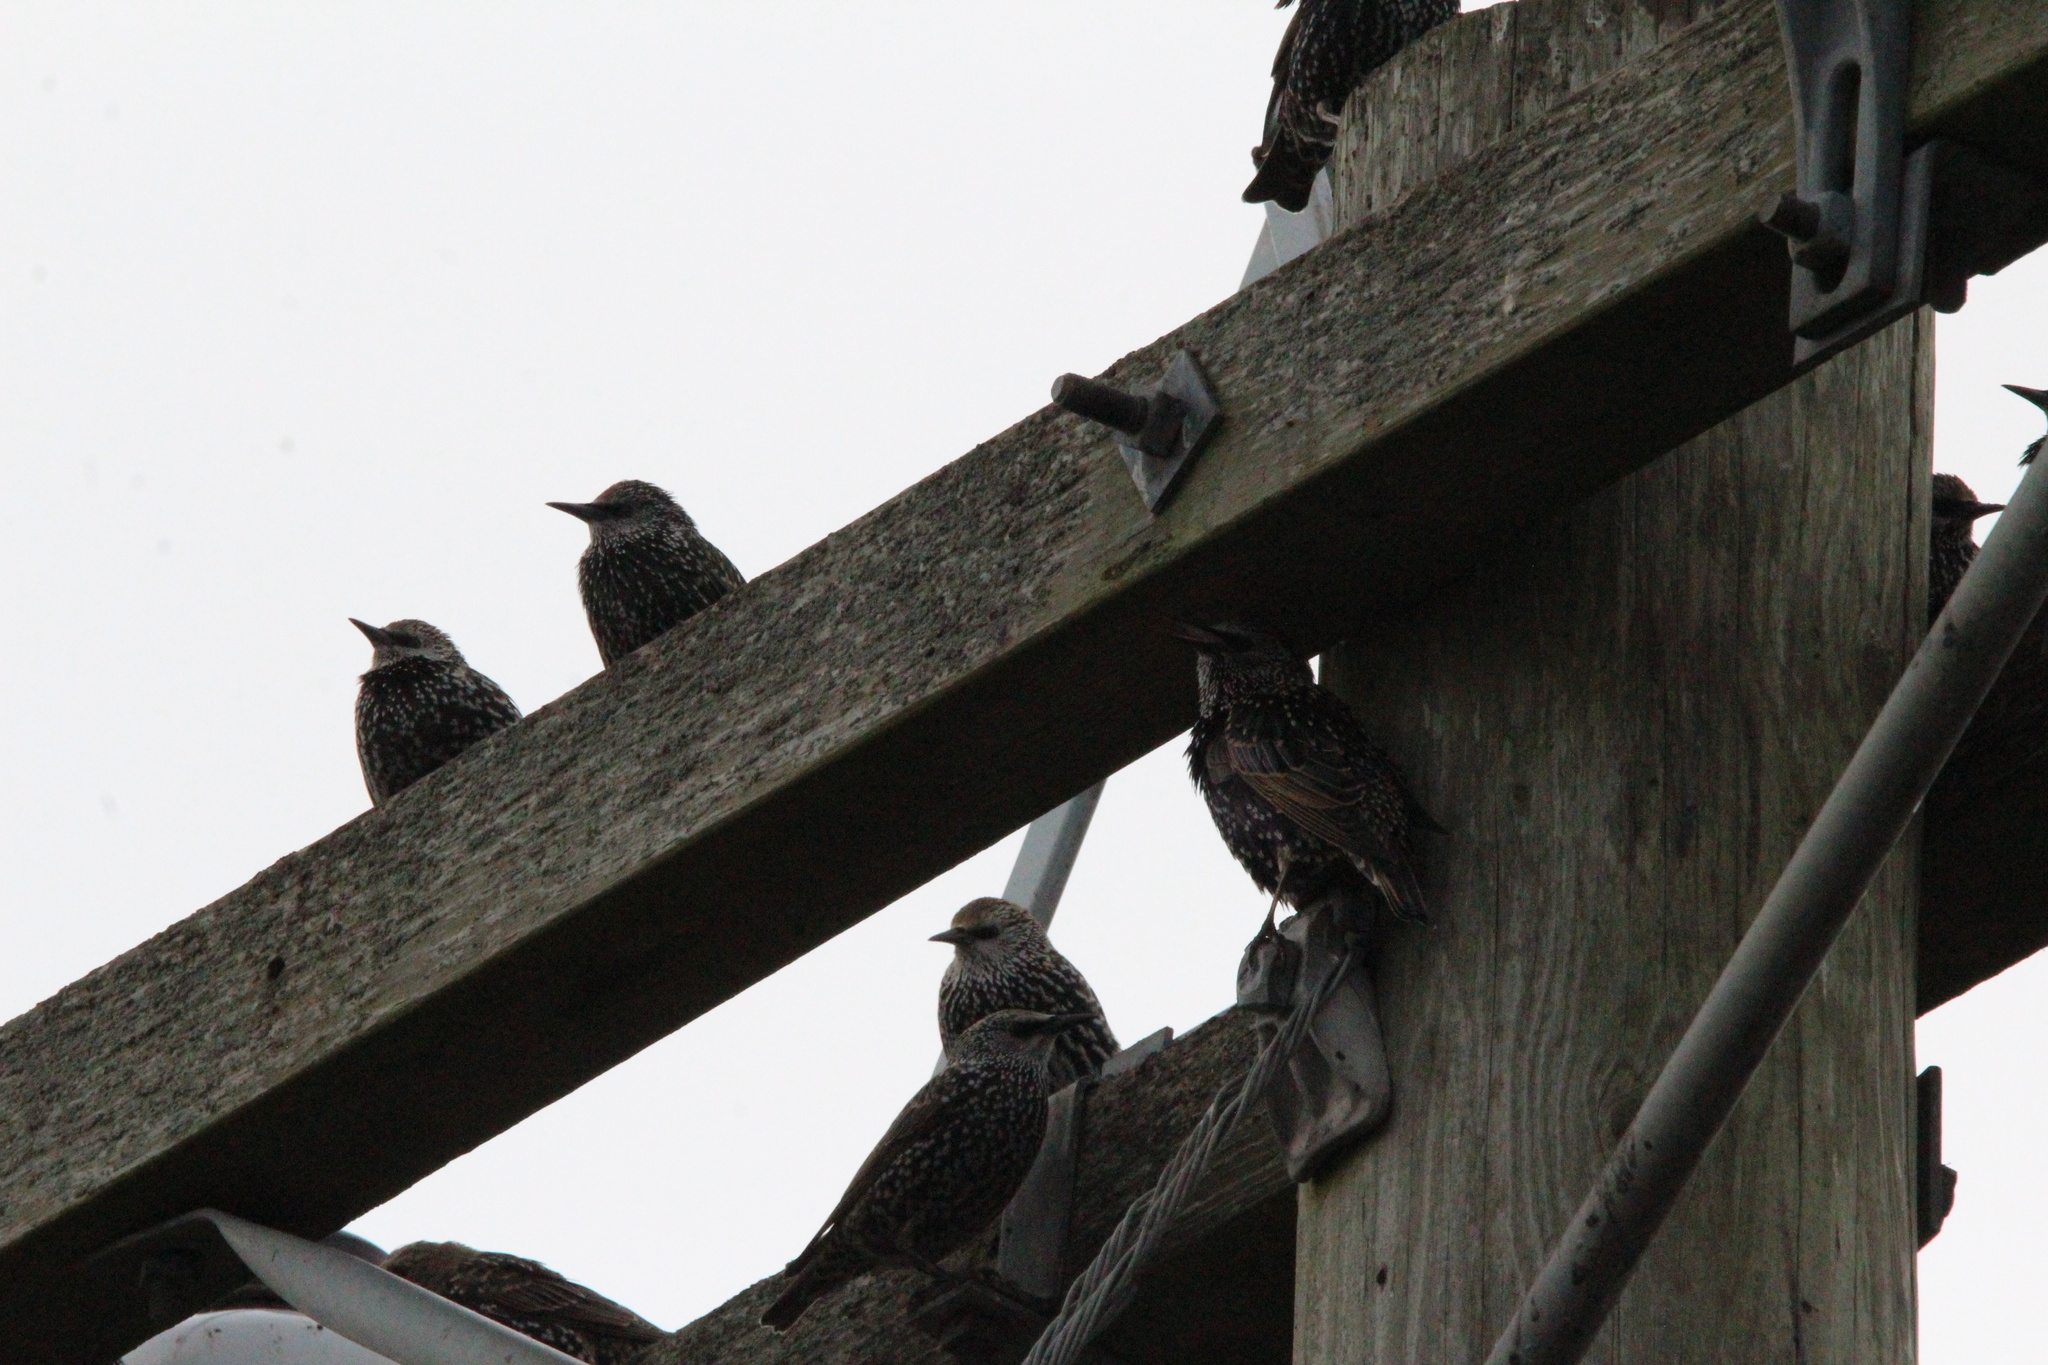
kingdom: Animalia
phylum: Chordata
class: Aves
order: Passeriformes
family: Sturnidae
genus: Sturnus
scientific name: Sturnus vulgaris
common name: Common starling
